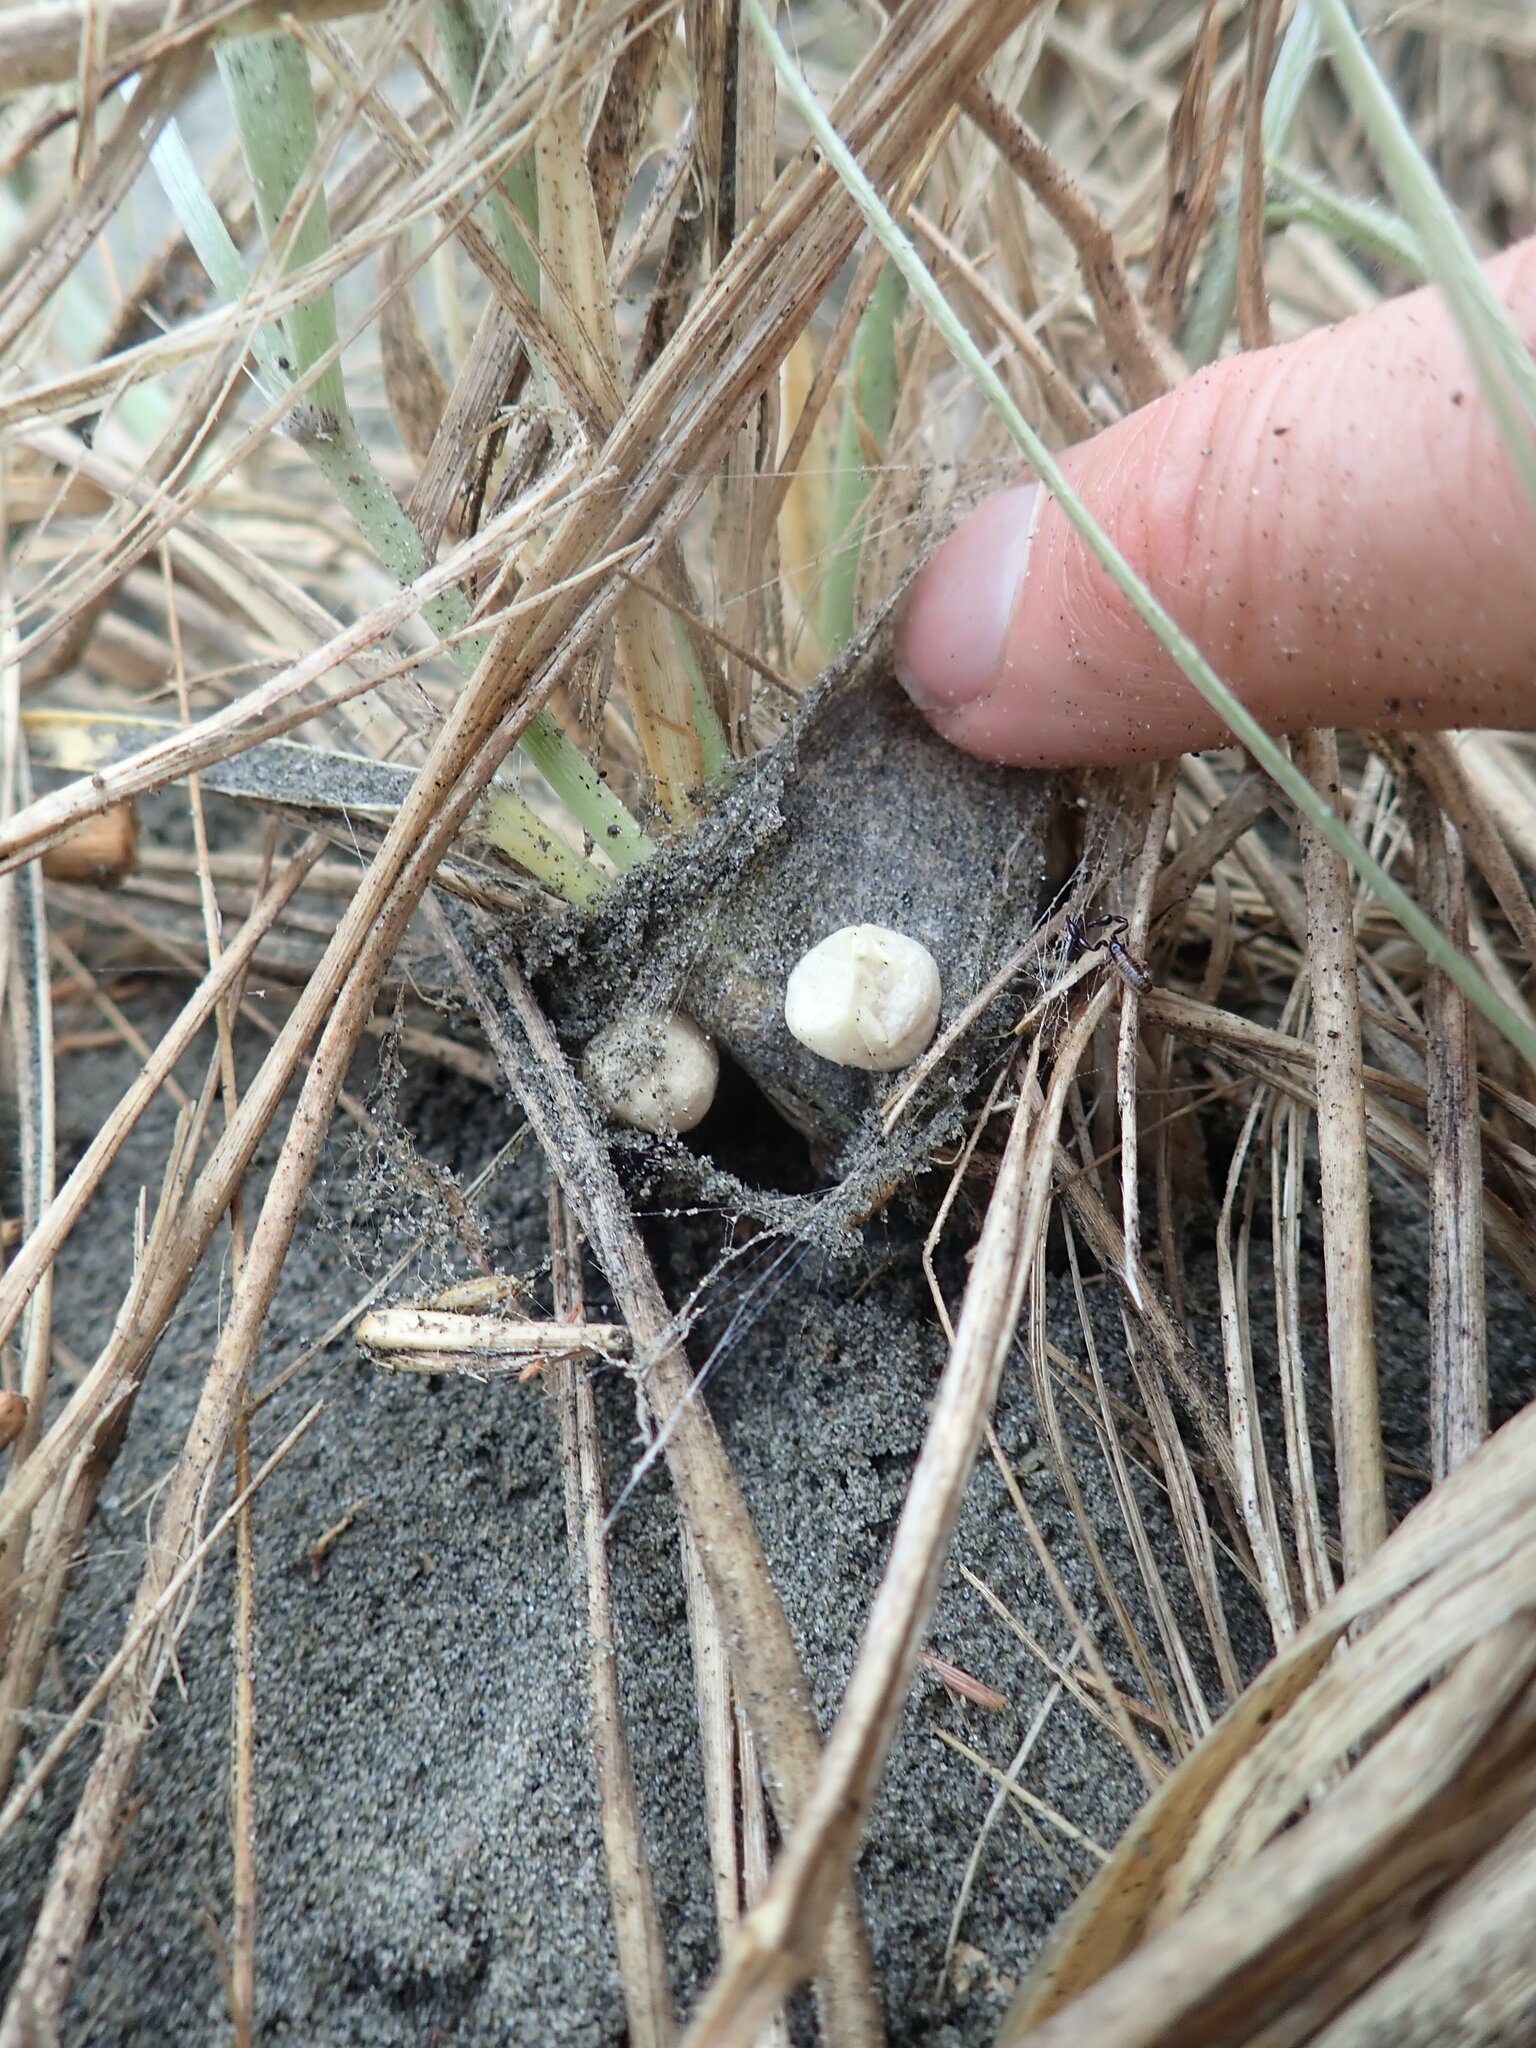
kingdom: Animalia
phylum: Arthropoda
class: Arachnida
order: Araneae
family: Theridiidae
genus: Latrodectus
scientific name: Latrodectus katipo
